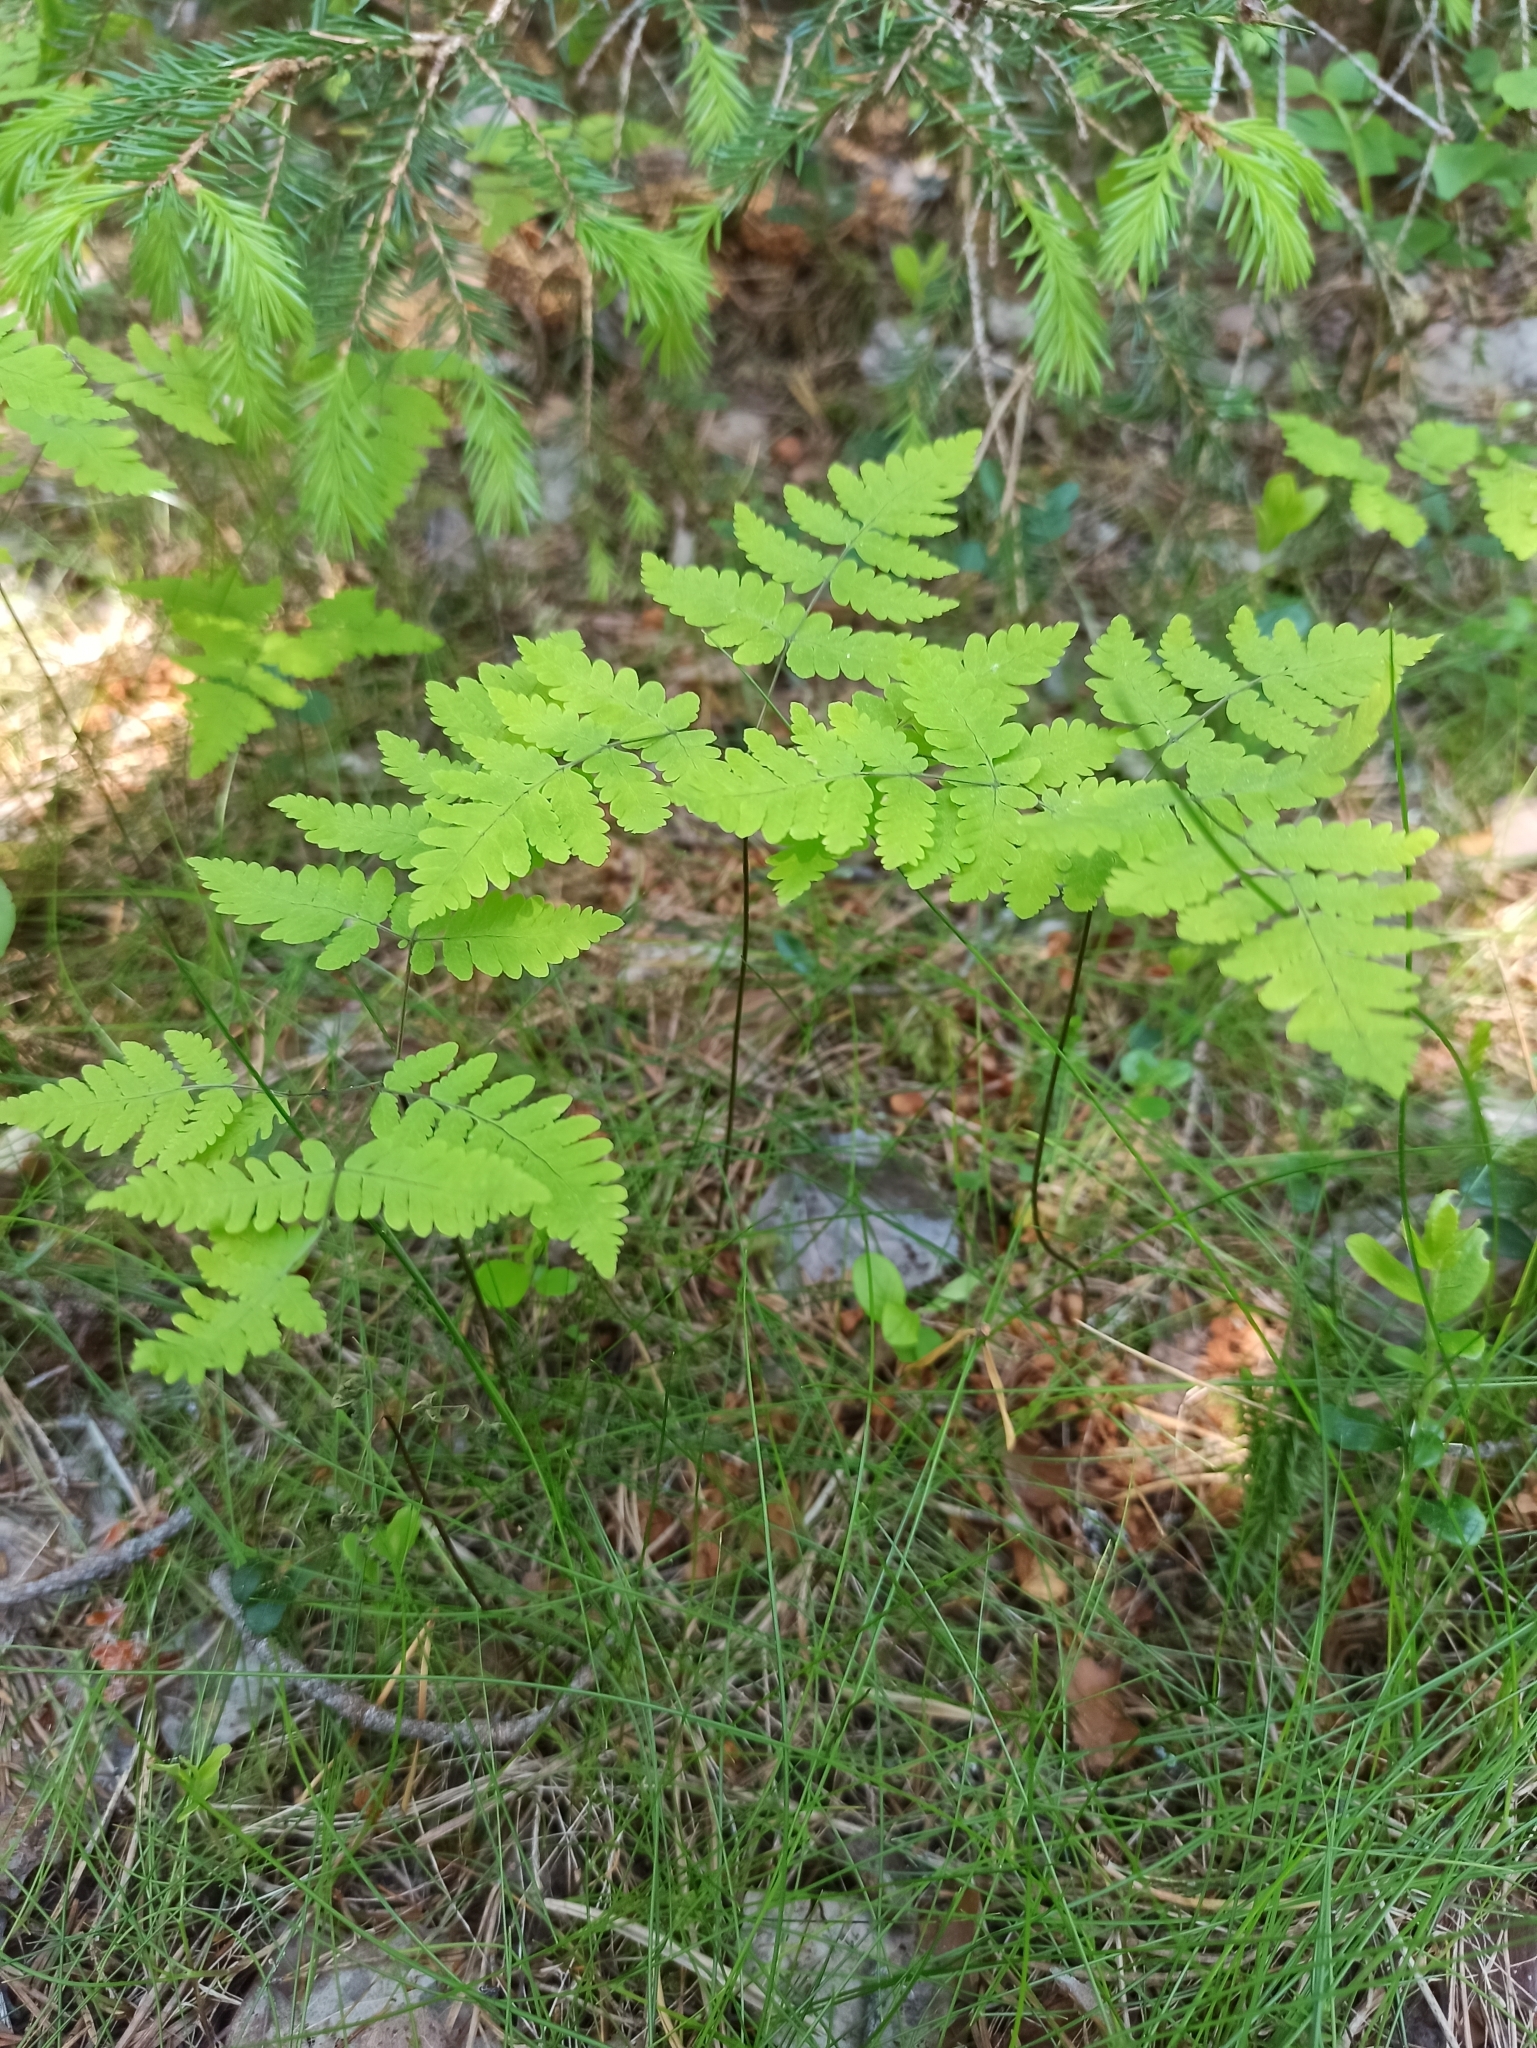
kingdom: Plantae
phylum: Tracheophyta
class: Polypodiopsida
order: Polypodiales
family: Cystopteridaceae
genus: Gymnocarpium
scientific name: Gymnocarpium dryopteris
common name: Oak fern
